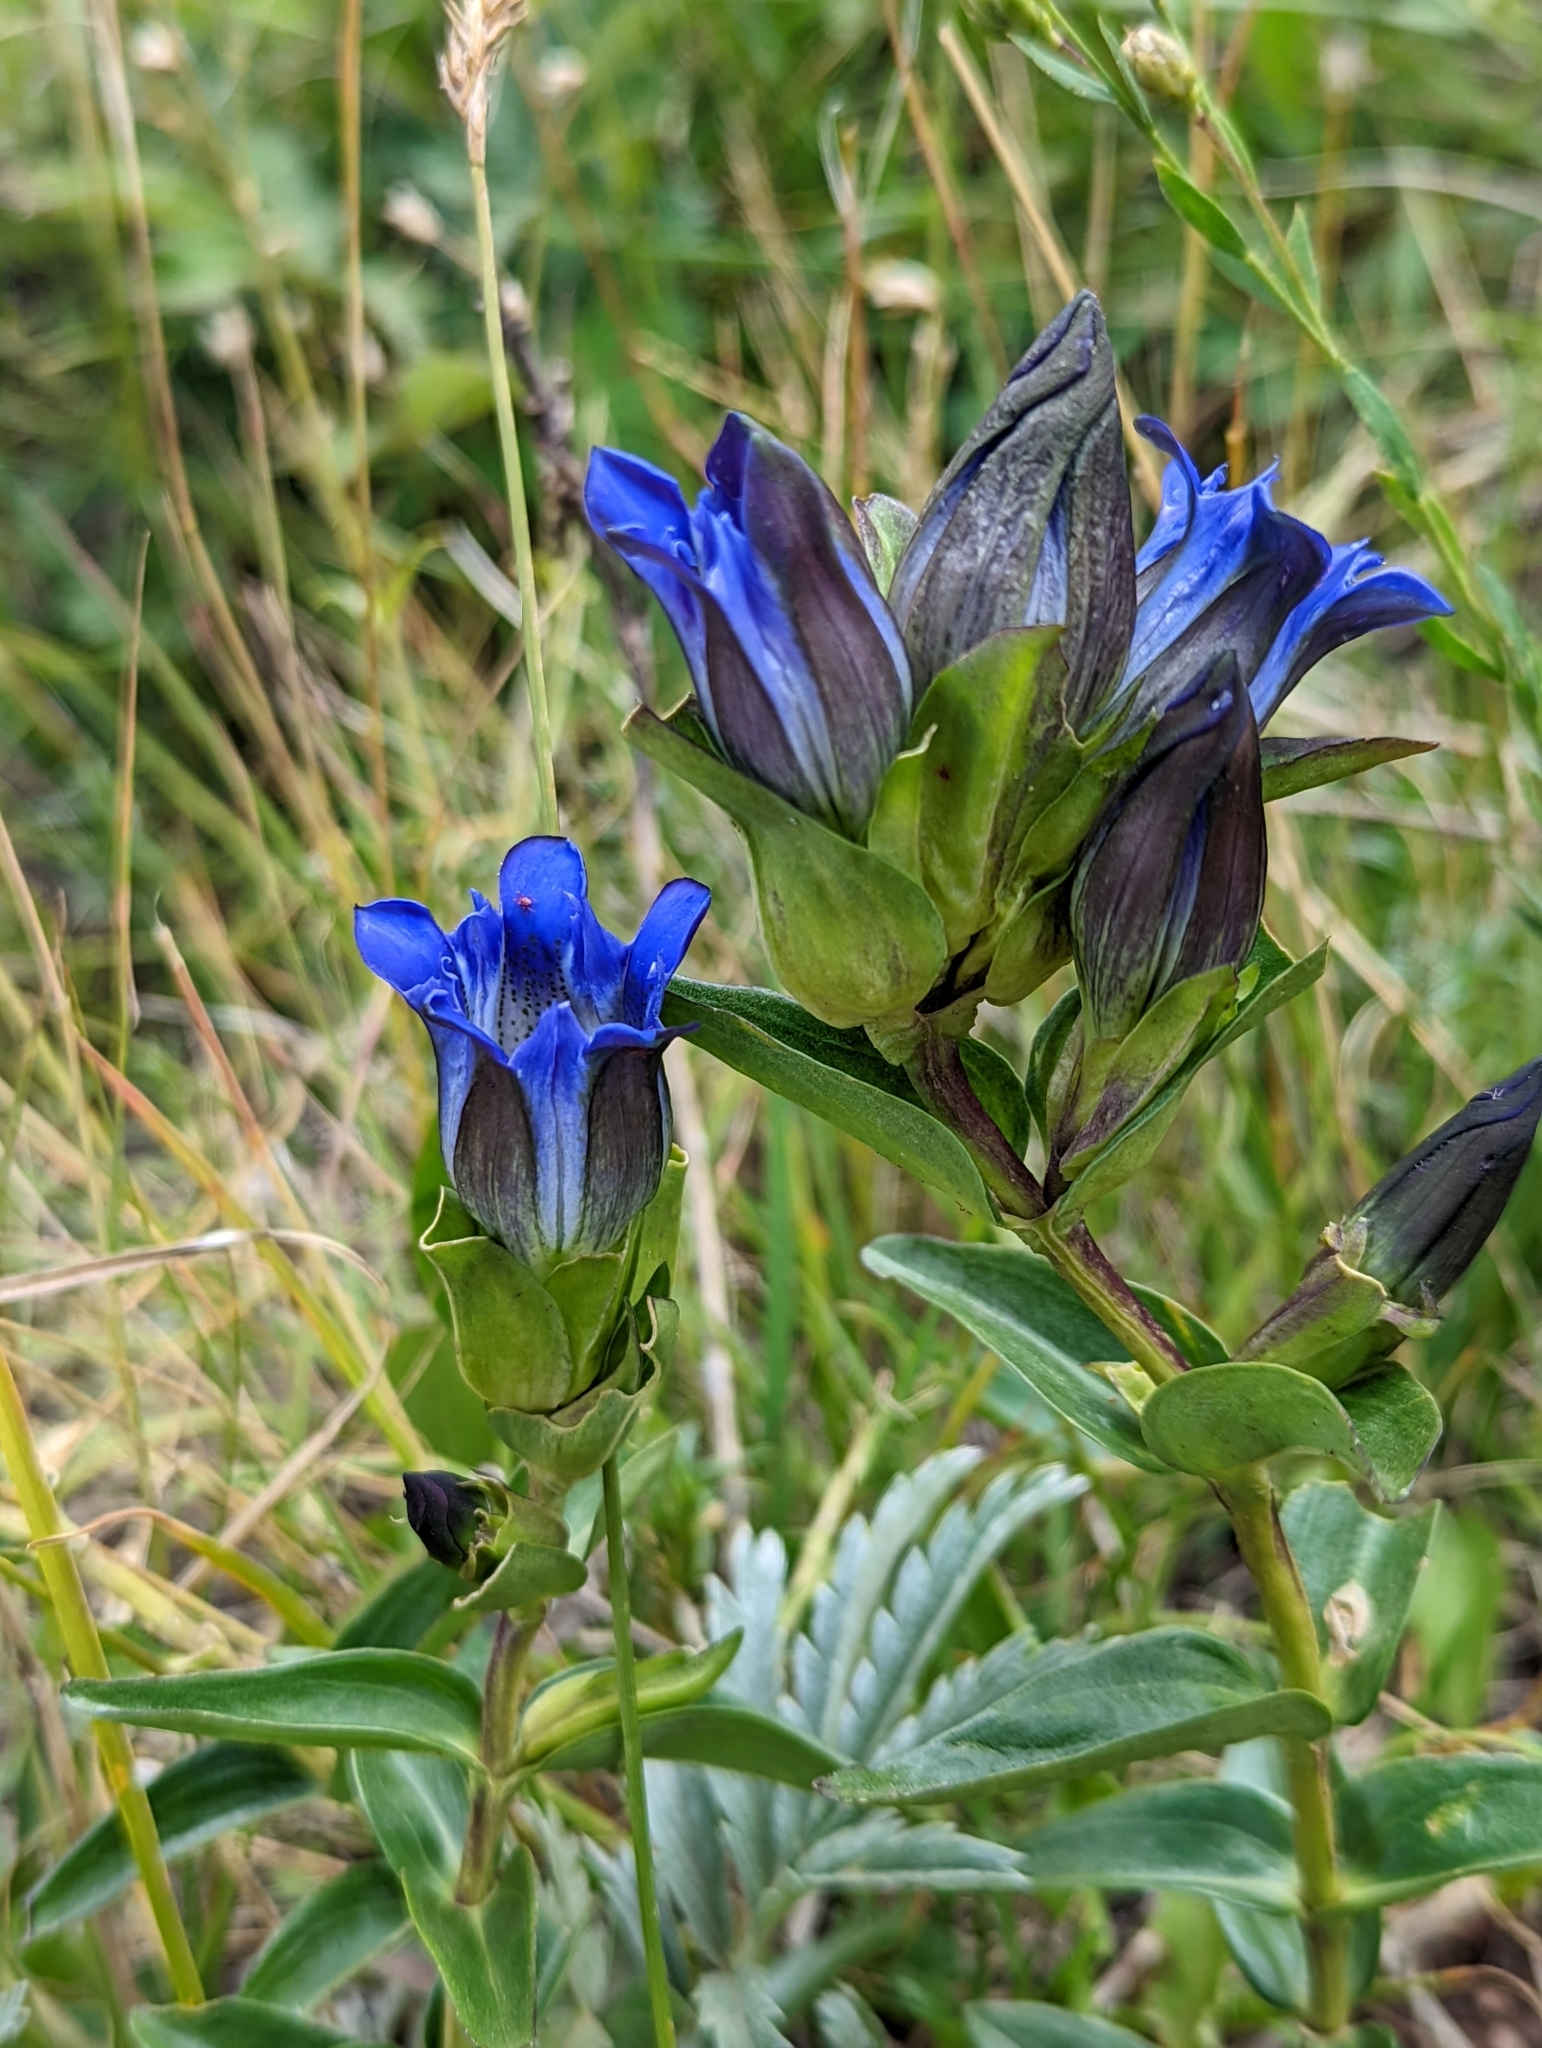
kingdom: Plantae
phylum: Tracheophyta
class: Magnoliopsida
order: Gentianales
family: Gentianaceae
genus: Gentiana
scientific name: Gentiana parryi
